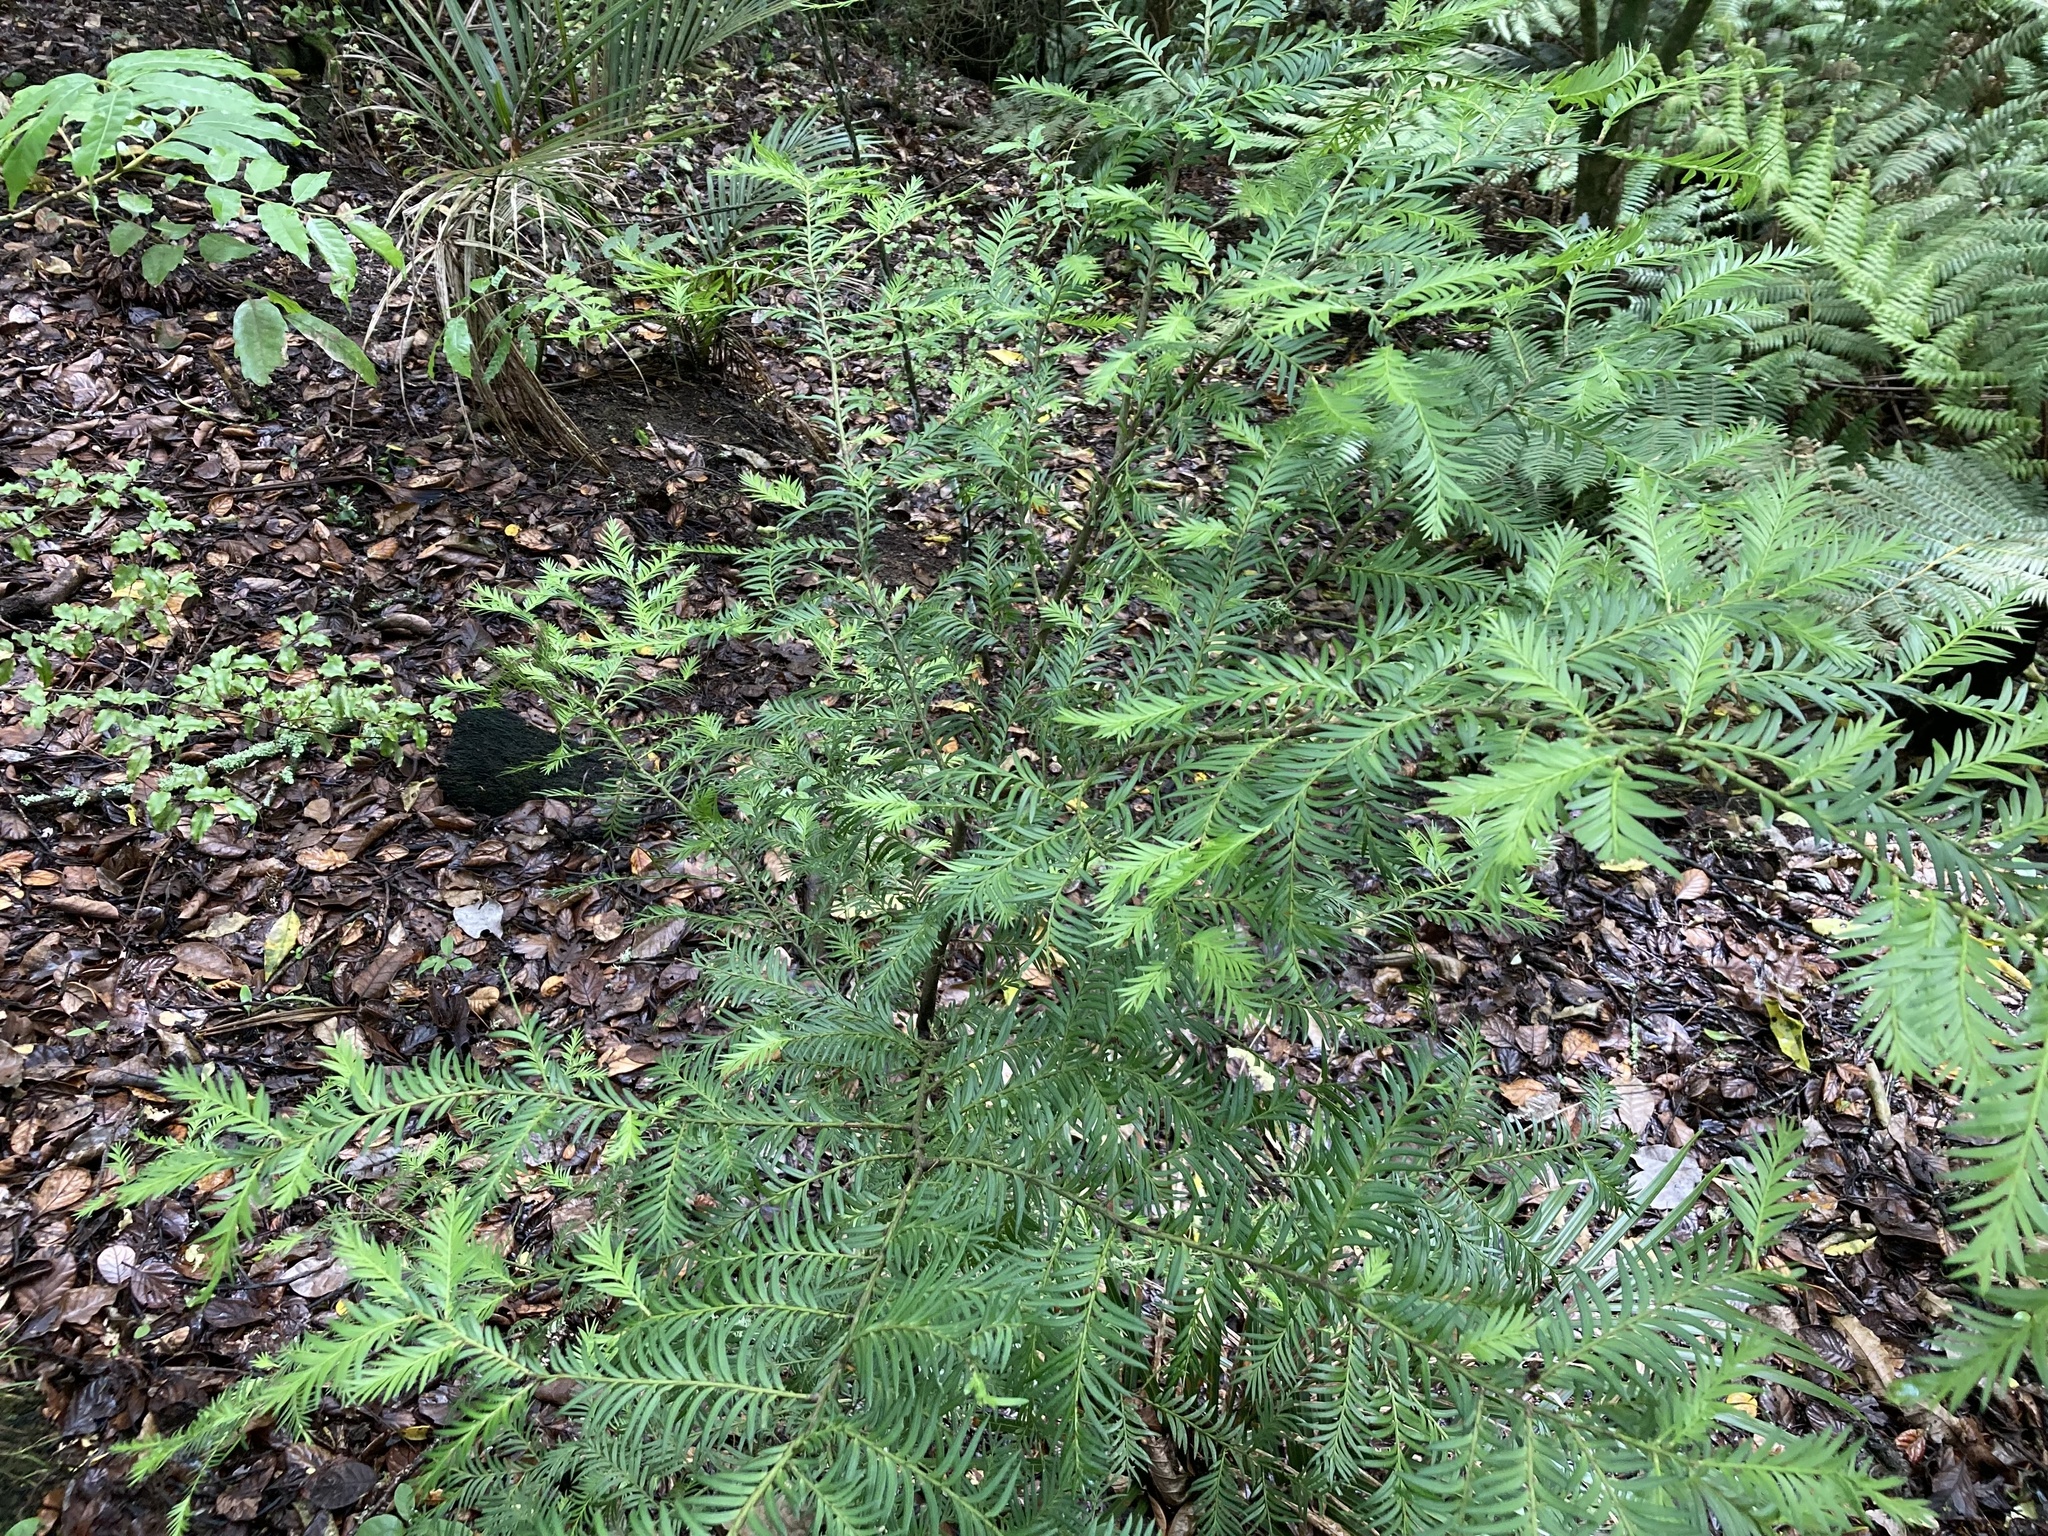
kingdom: Plantae
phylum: Tracheophyta
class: Pinopsida
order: Pinales
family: Podocarpaceae
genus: Prumnopitys
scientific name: Prumnopitys ferruginea
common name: Brown pine
